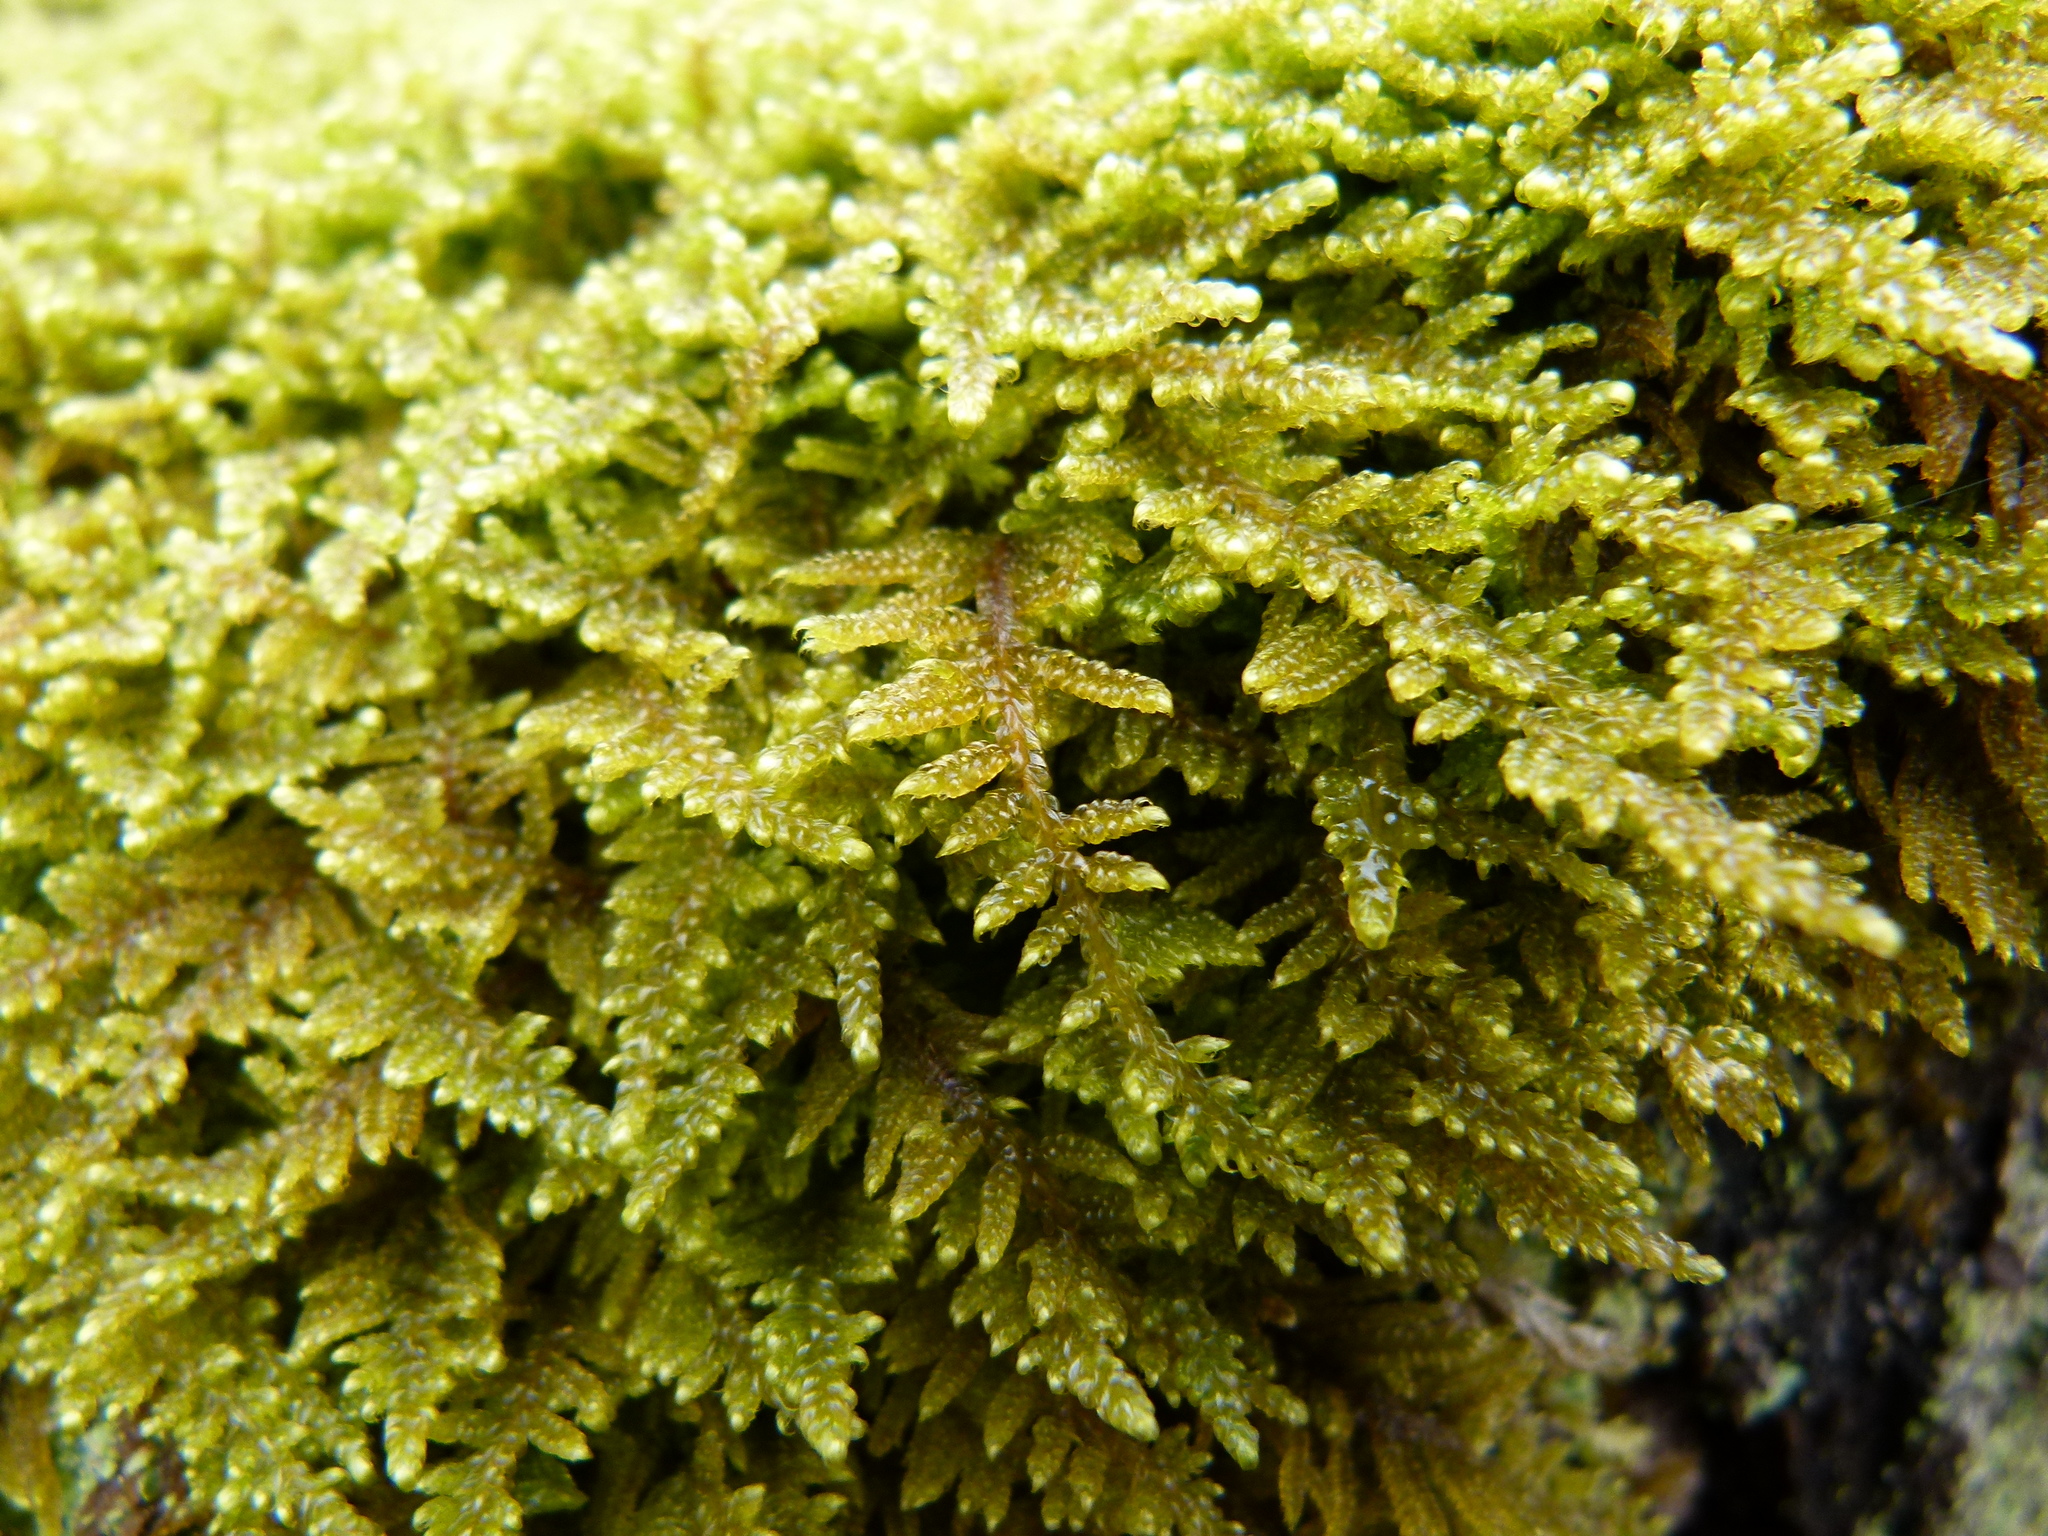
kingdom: Plantae
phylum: Bryophyta
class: Bryopsida
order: Hypnales
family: Callicladiaceae
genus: Callicladium
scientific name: Callicladium imponens
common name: Brocade moss
